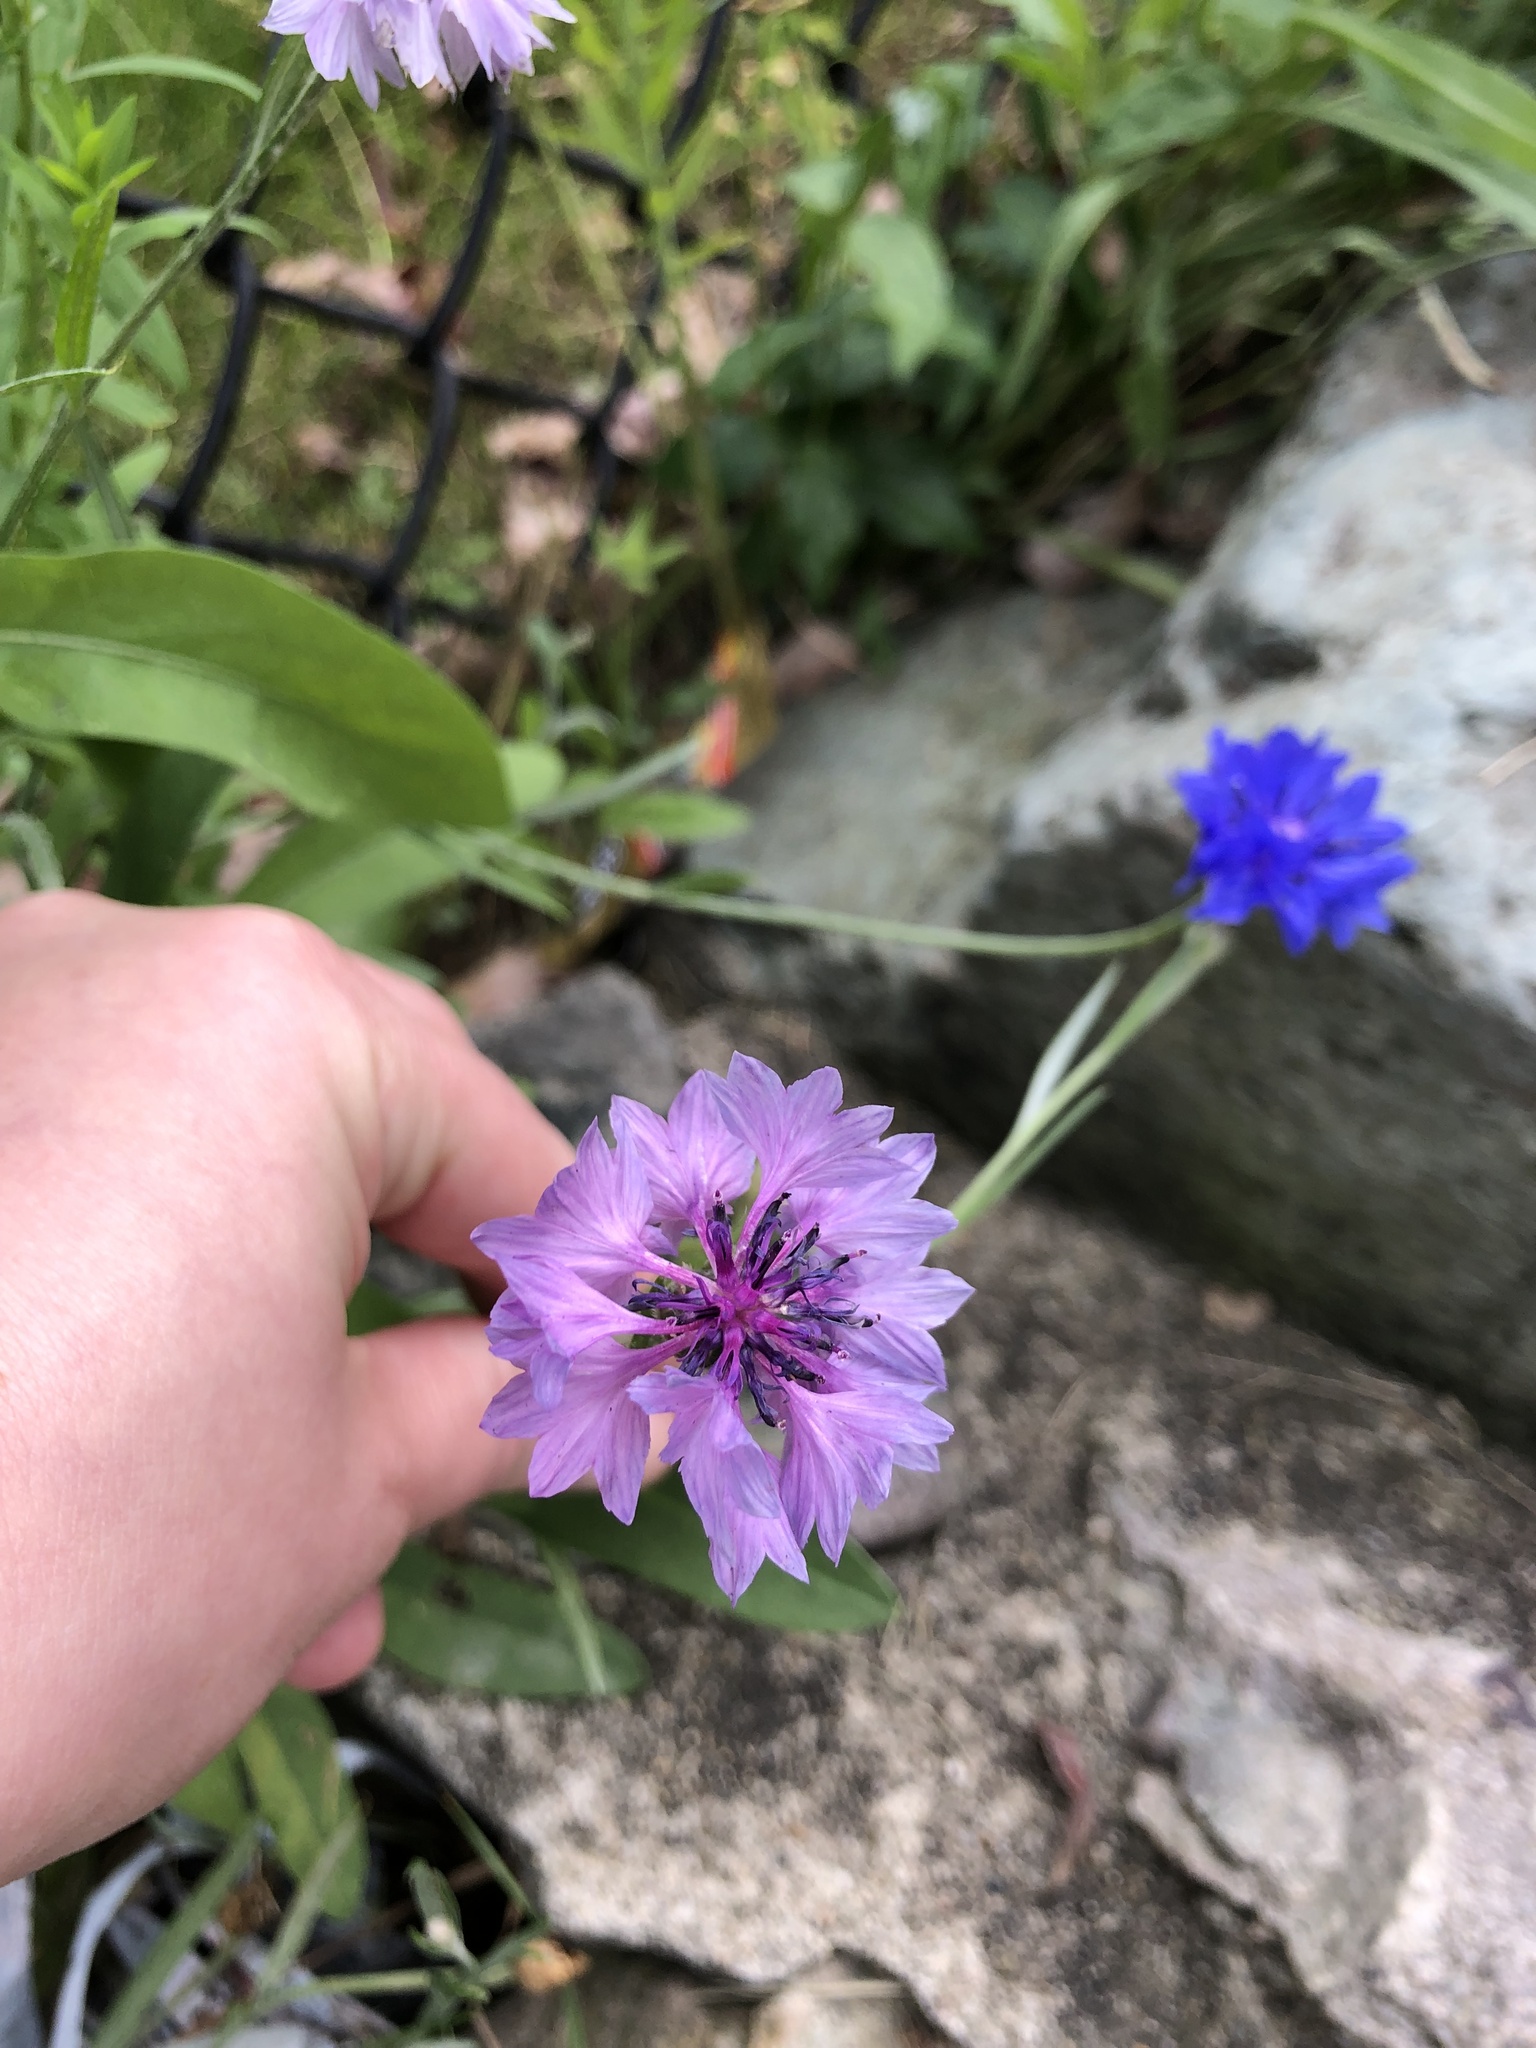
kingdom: Plantae
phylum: Tracheophyta
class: Magnoliopsida
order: Asterales
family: Asteraceae
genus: Centaurea
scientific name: Centaurea cyanus
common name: Cornflower
